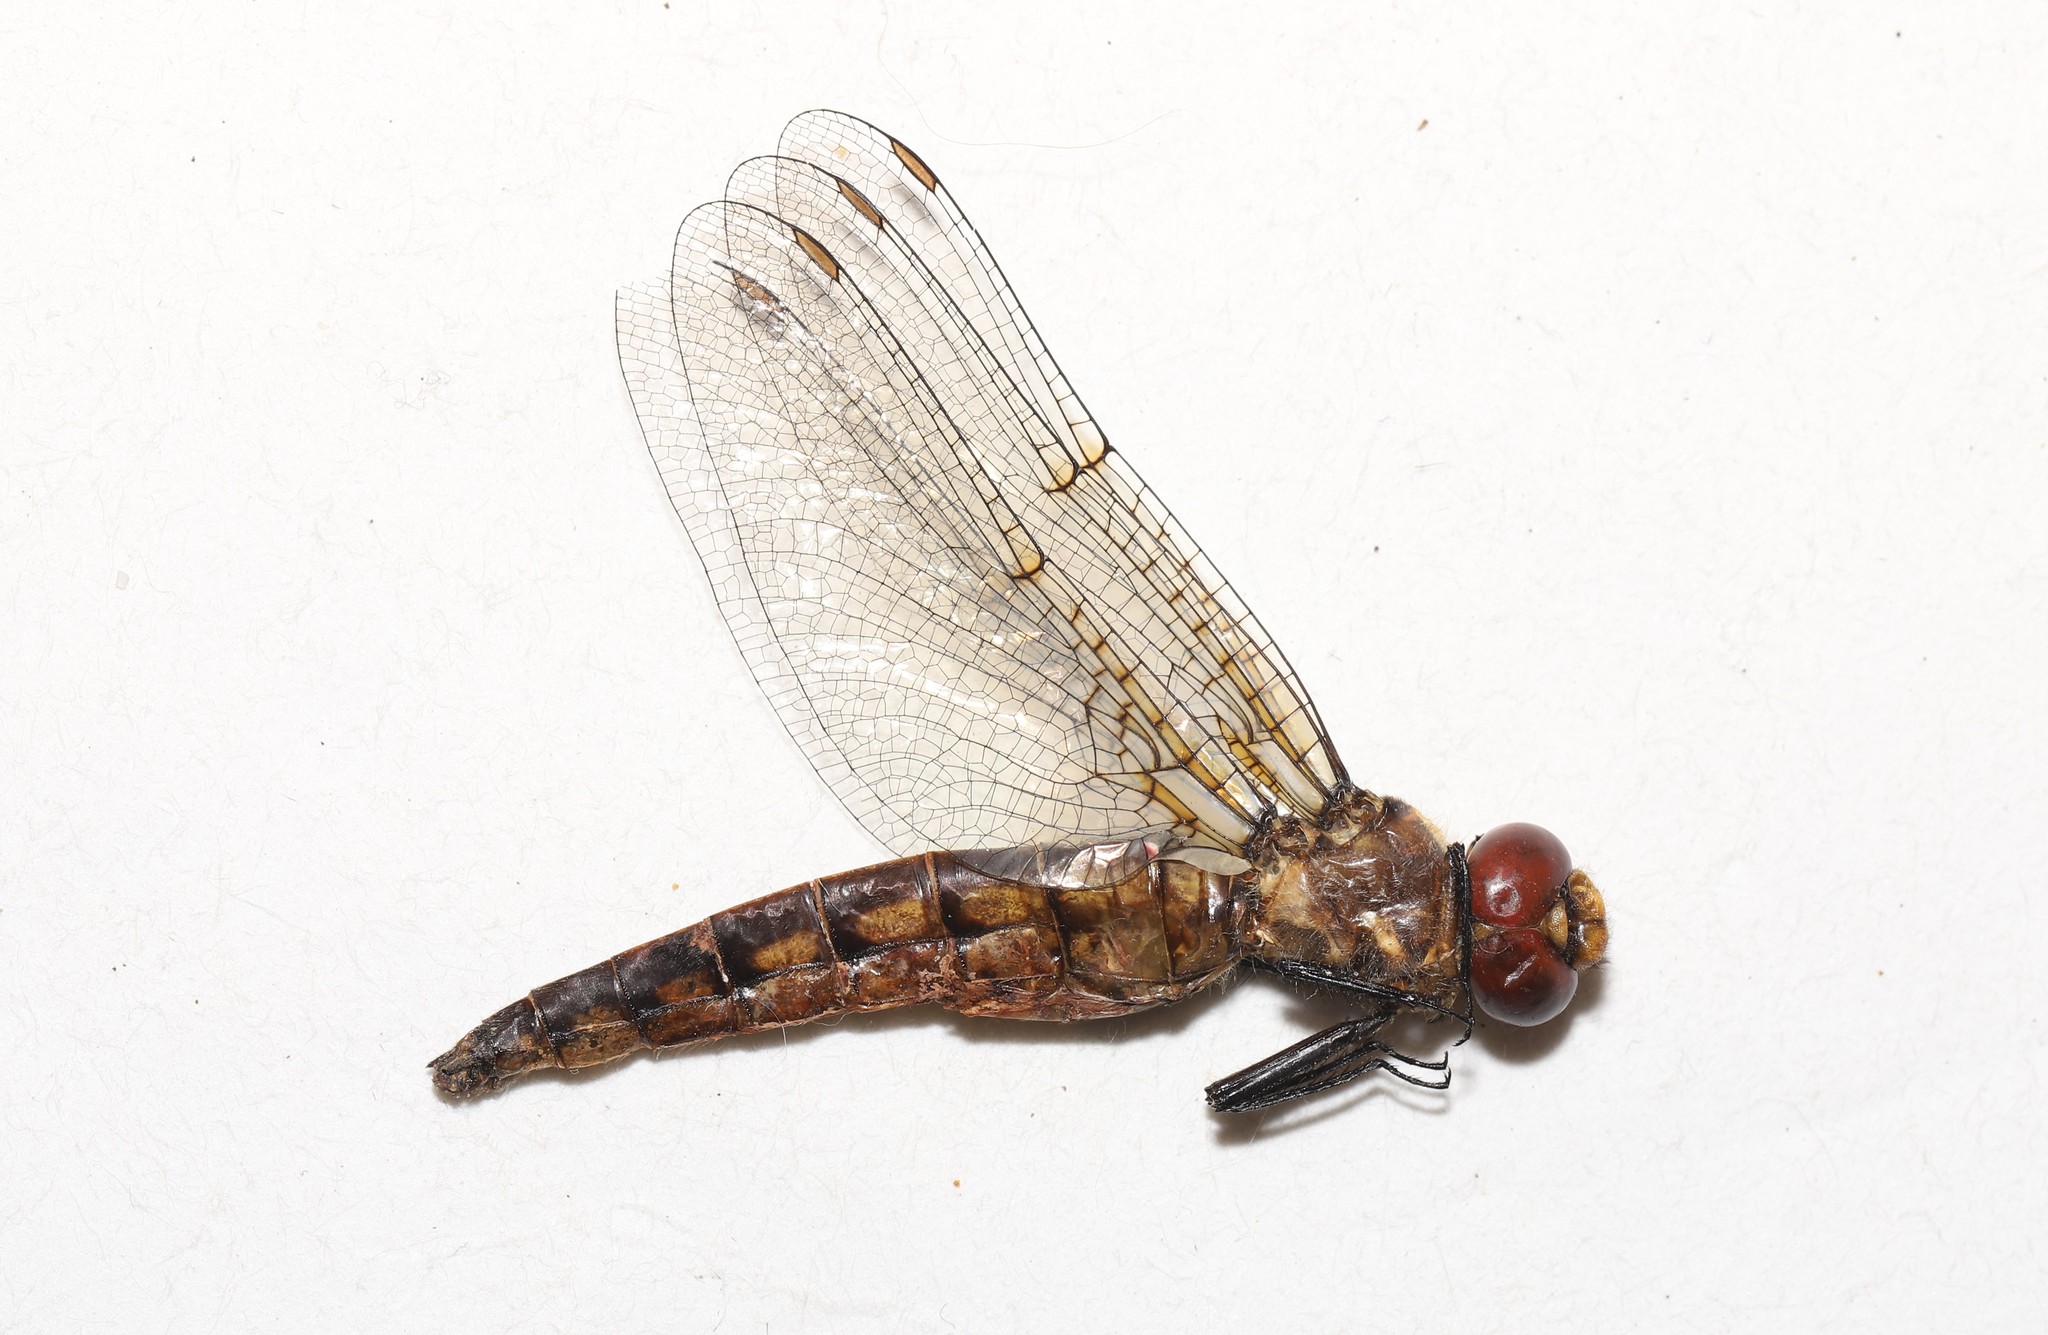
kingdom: Animalia
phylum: Arthropoda
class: Insecta
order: Odonata
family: Corduliidae
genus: Neurocordulia
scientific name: Neurocordulia michaeli
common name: Broad-tailed shadowdragon
